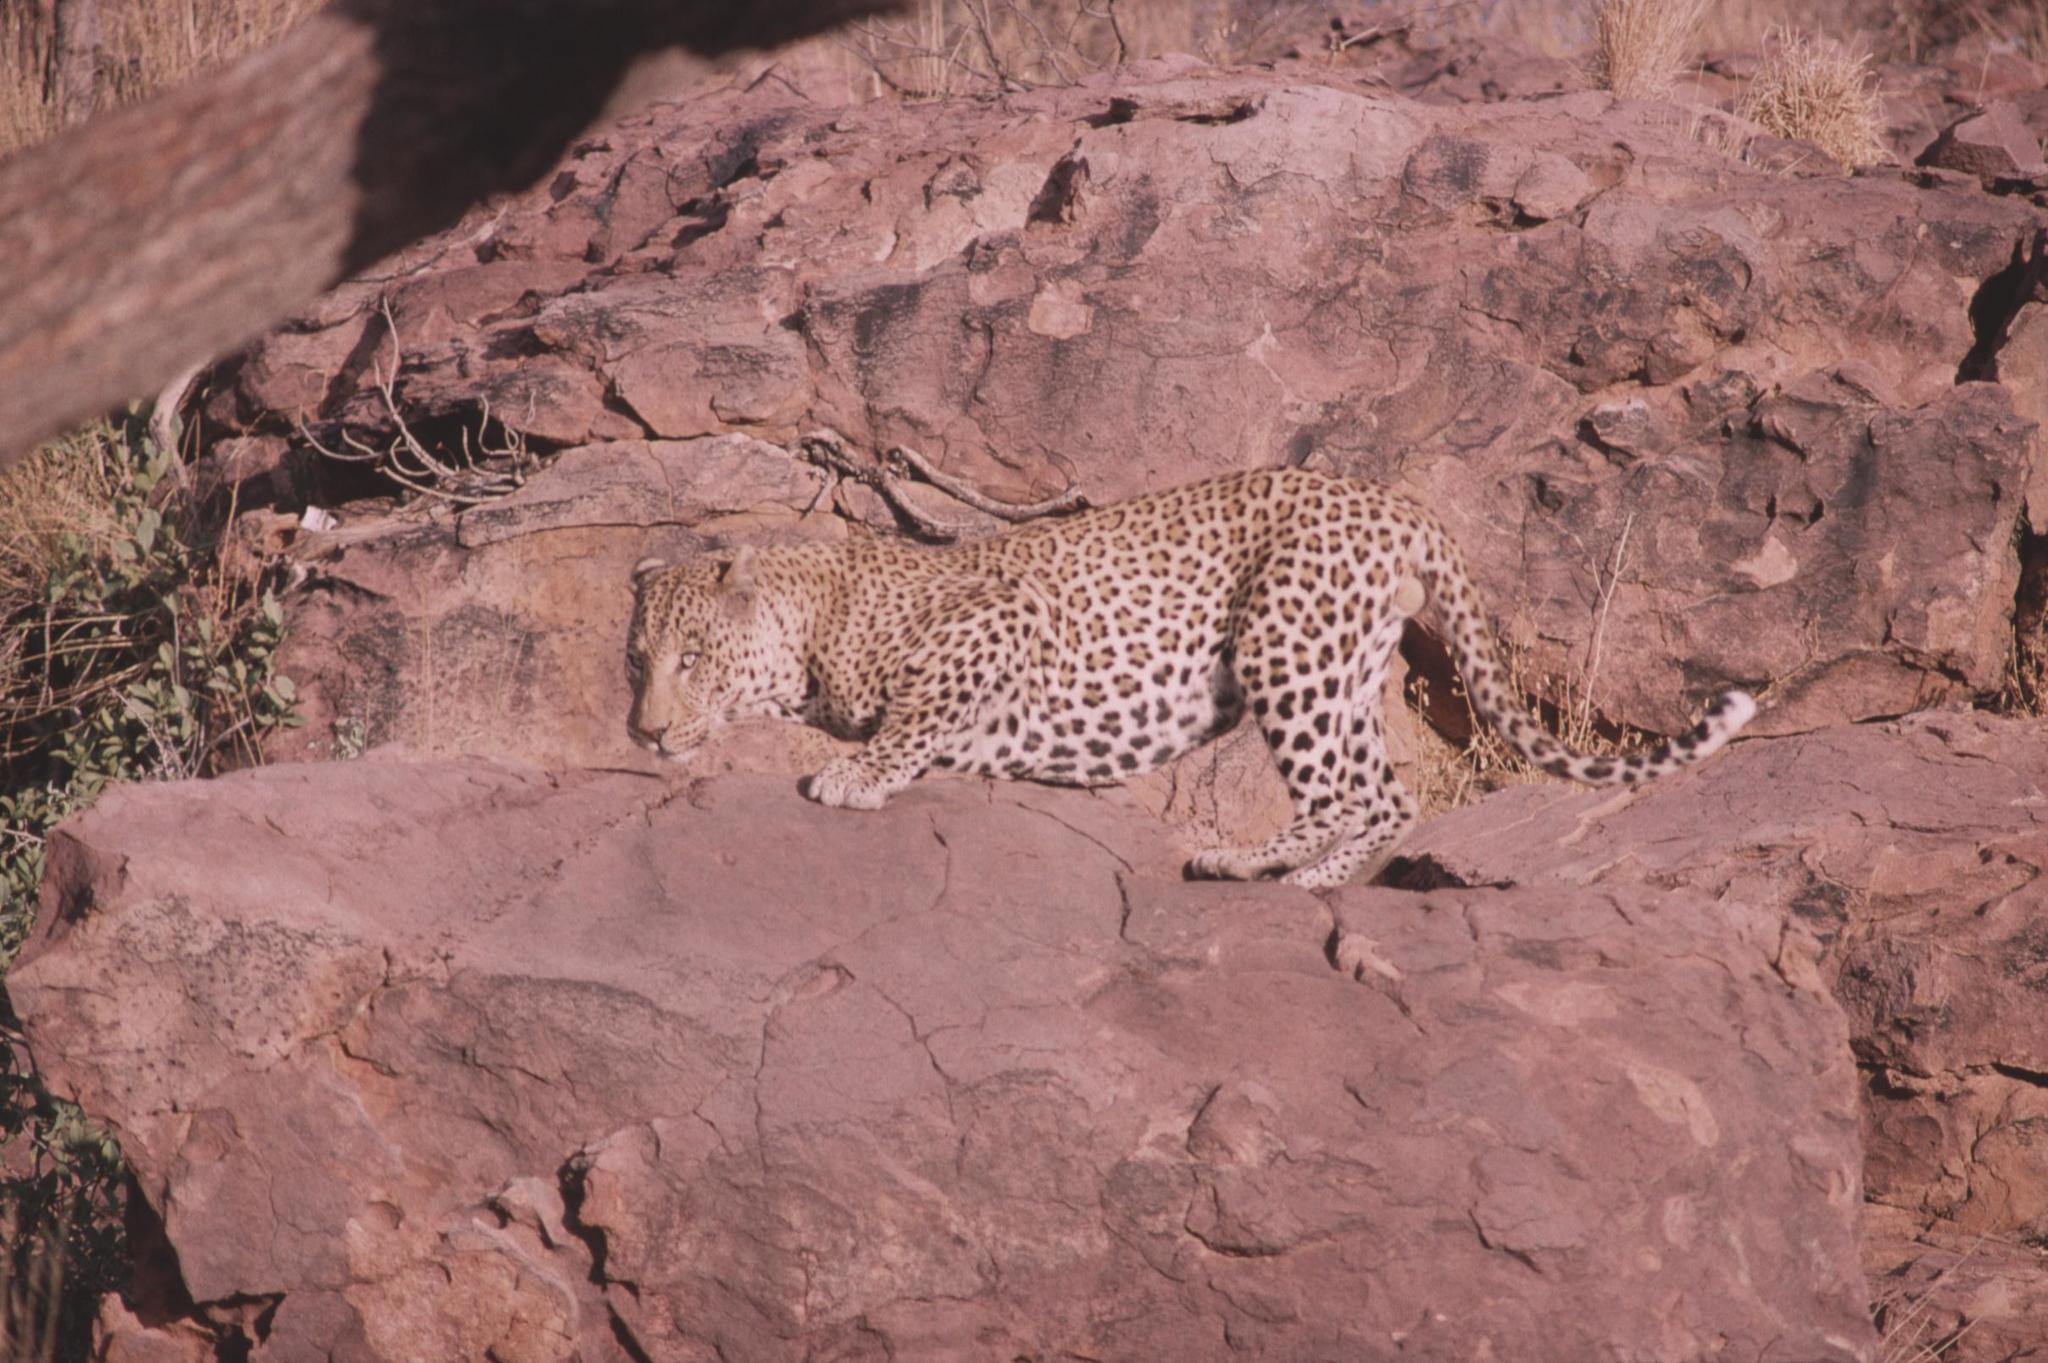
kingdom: Animalia
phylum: Chordata
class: Mammalia
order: Carnivora
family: Felidae
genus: Panthera
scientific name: Panthera pardus
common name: Leopard
